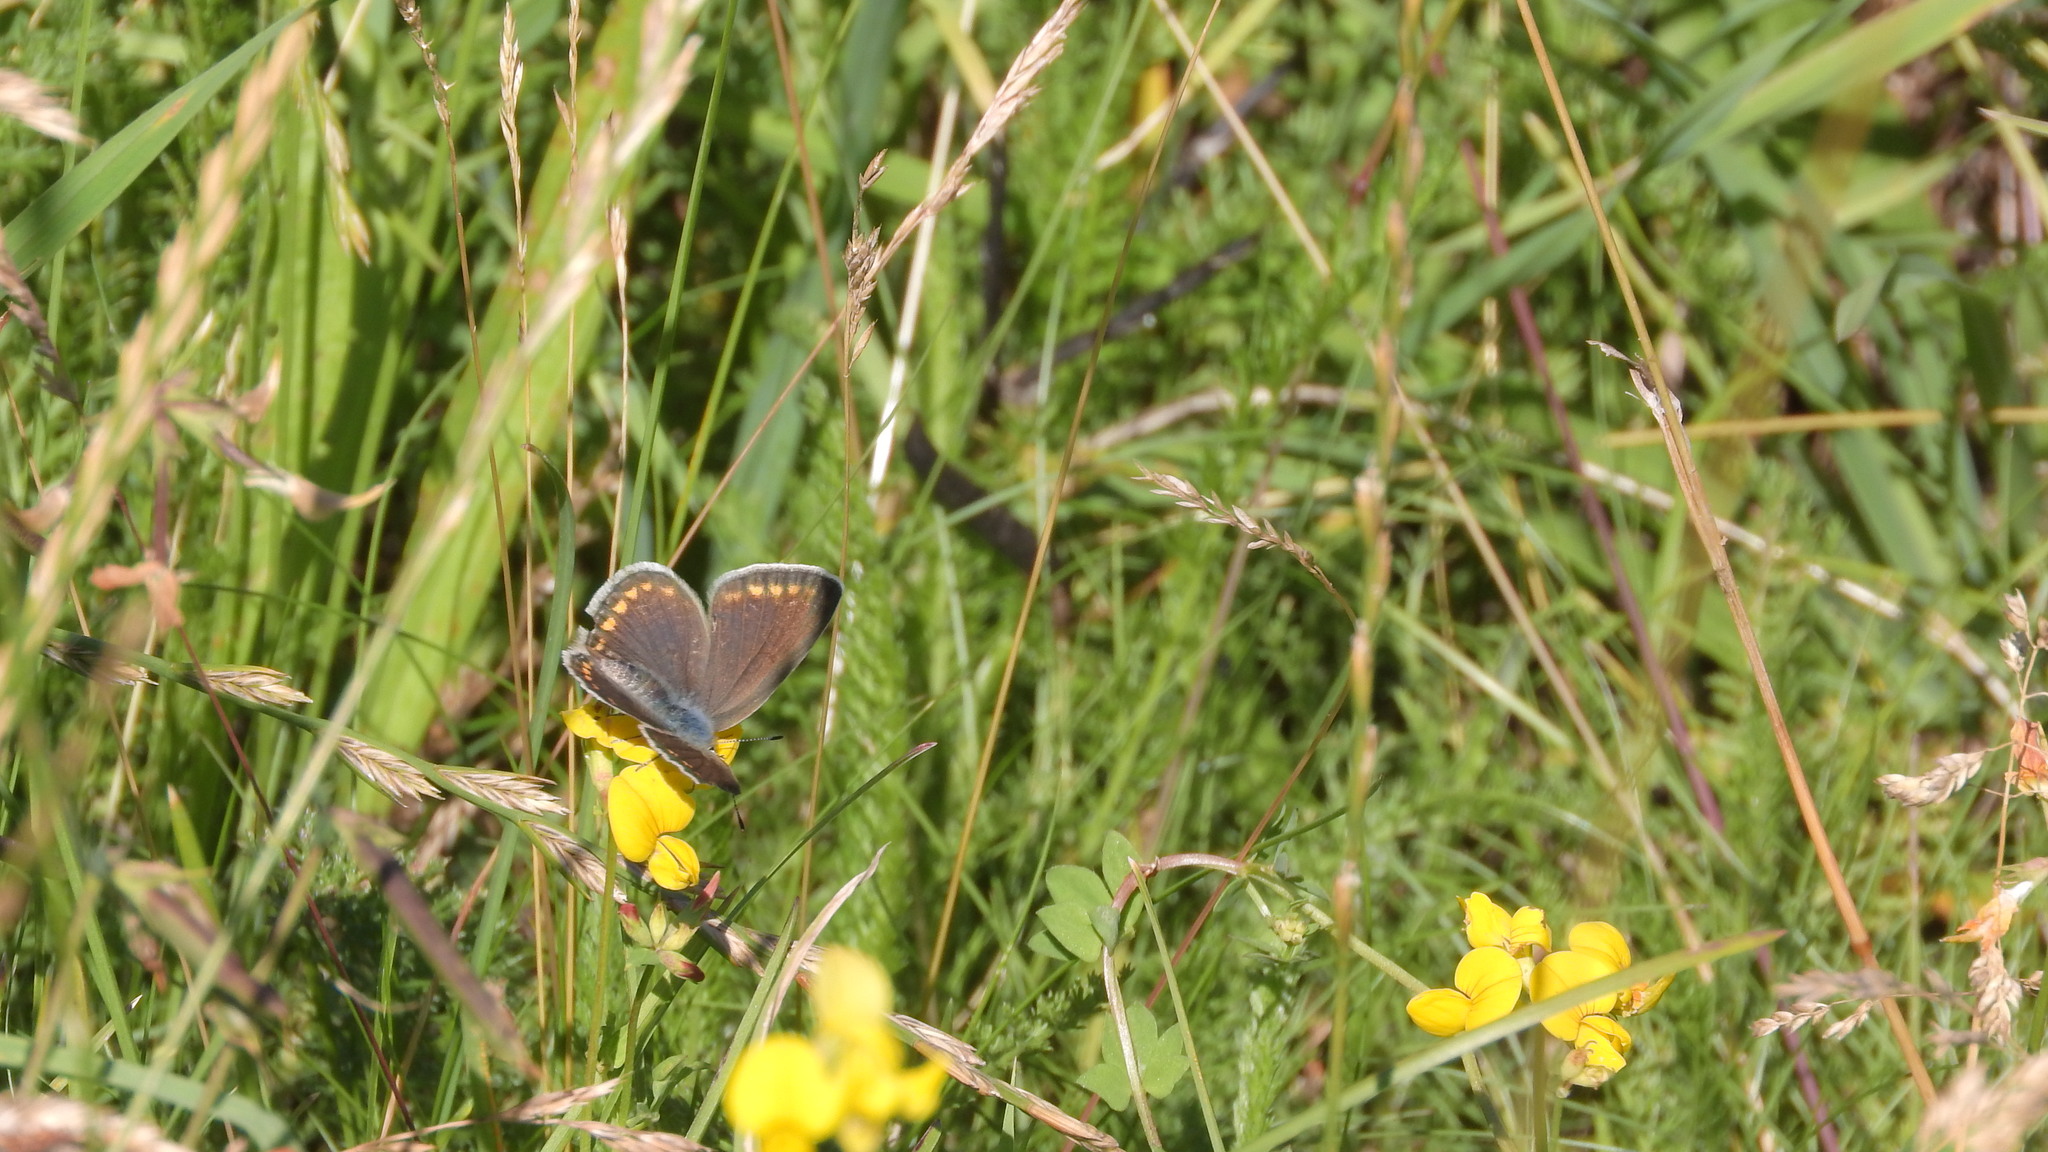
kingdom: Animalia
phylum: Arthropoda
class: Insecta
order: Lepidoptera
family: Lycaenidae
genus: Polyommatus
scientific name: Polyommatus icarus
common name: Common blue
